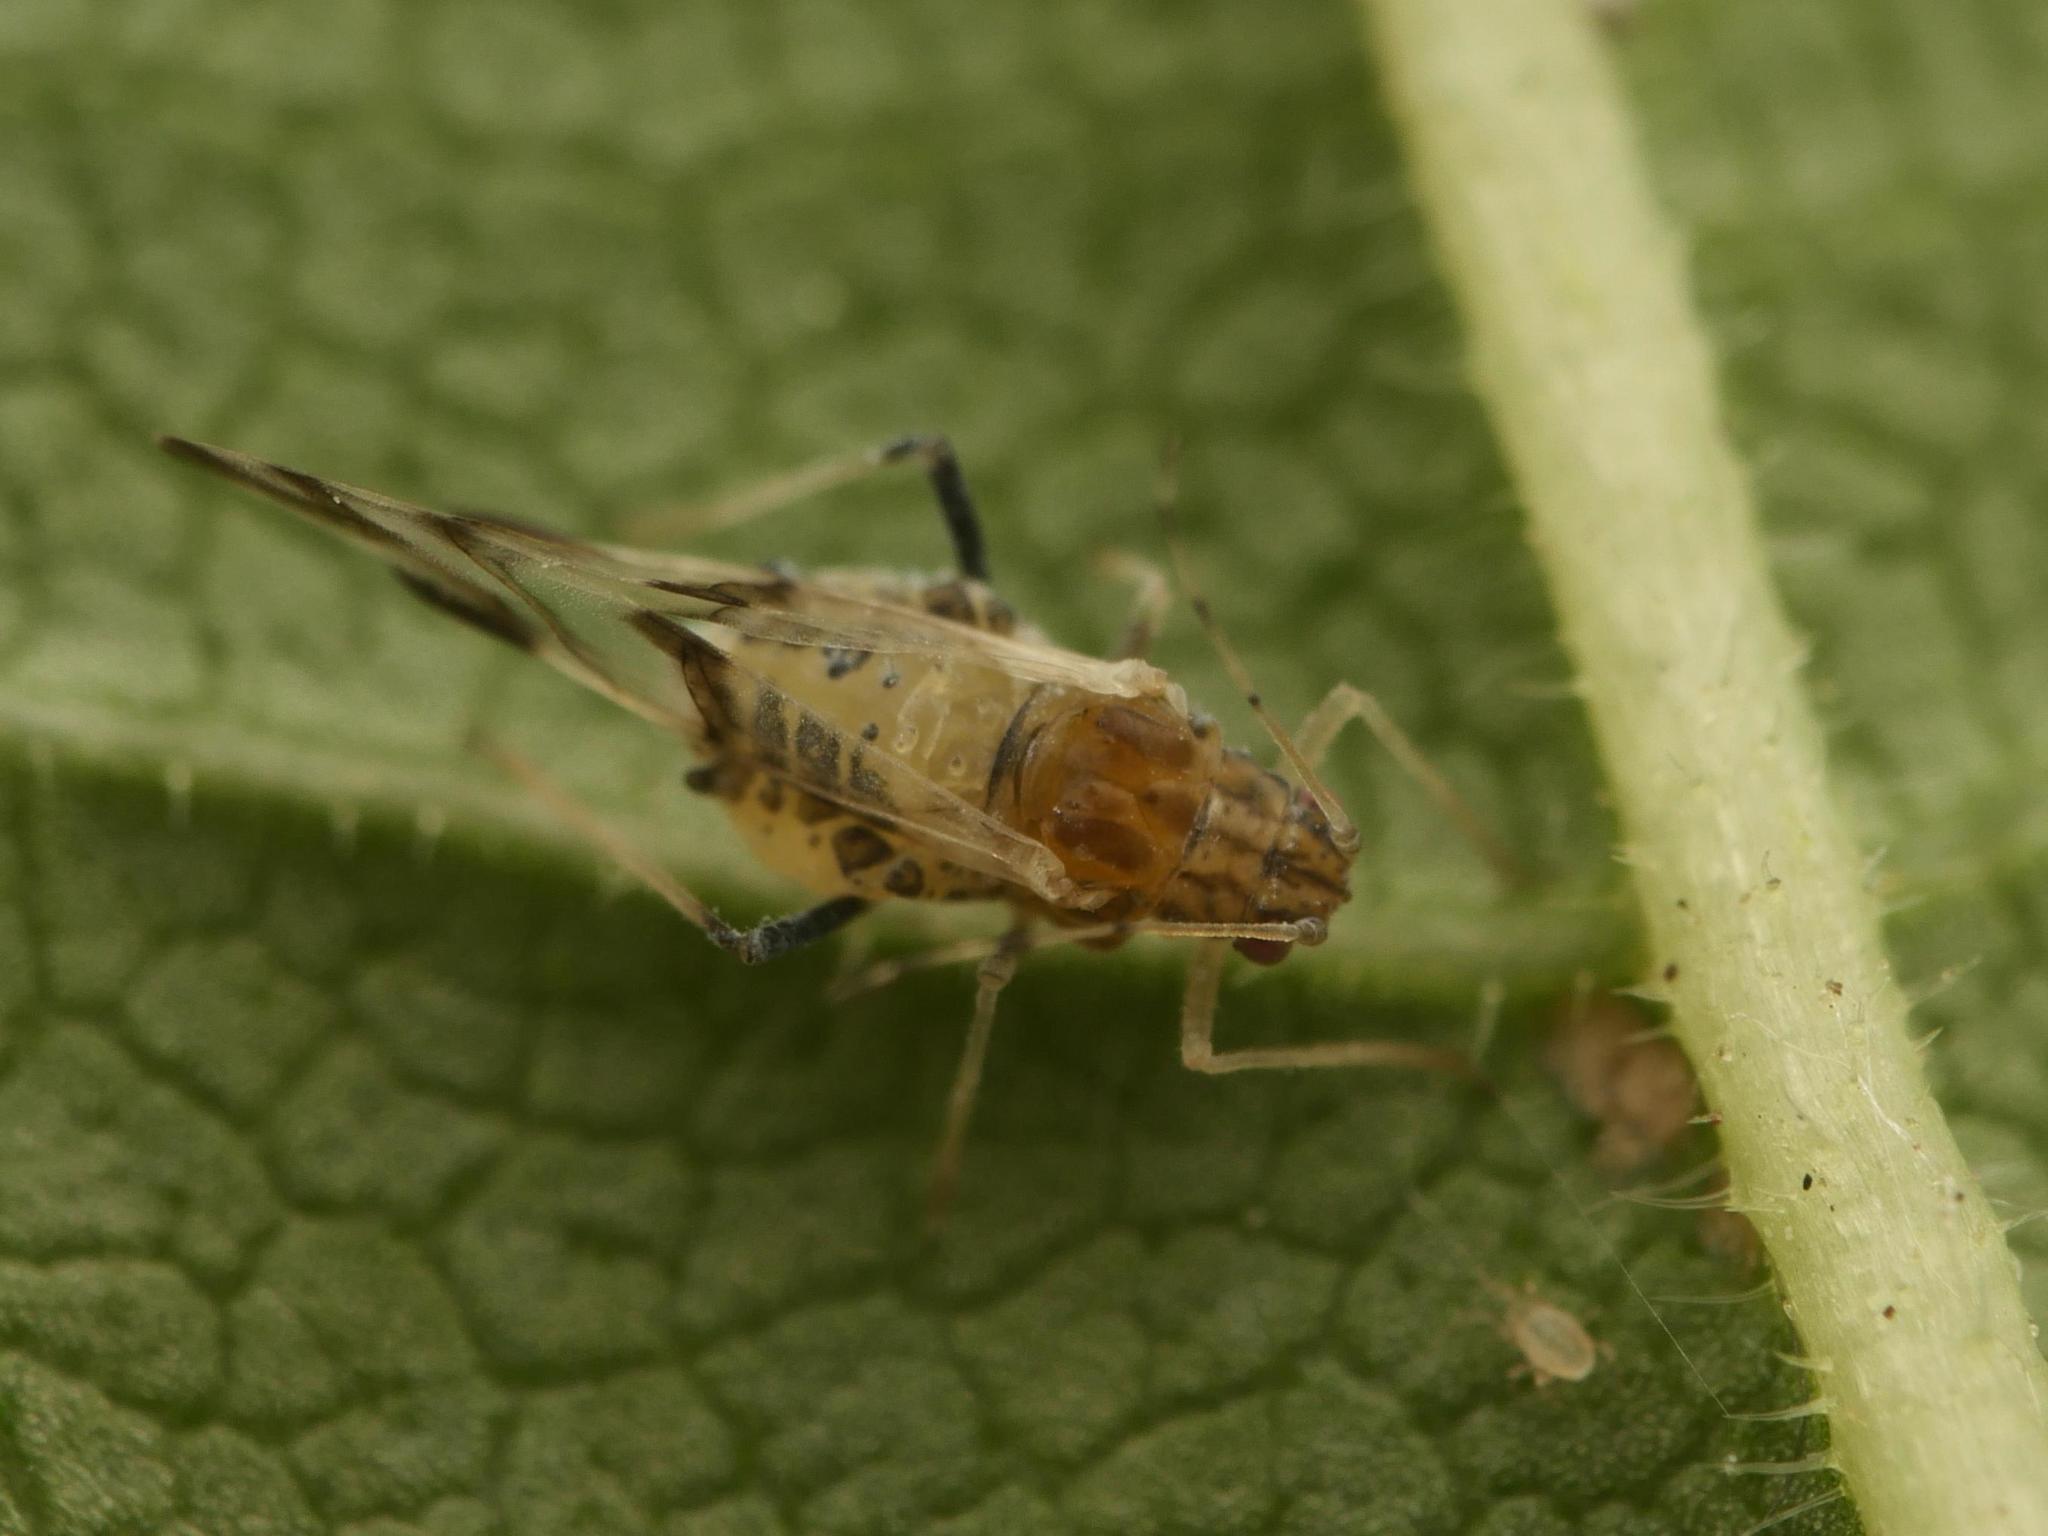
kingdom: Animalia
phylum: Arthropoda
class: Insecta
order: Hemiptera
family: Aphididae
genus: Tinocallis
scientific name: Tinocallis platani
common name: Elm aphid
